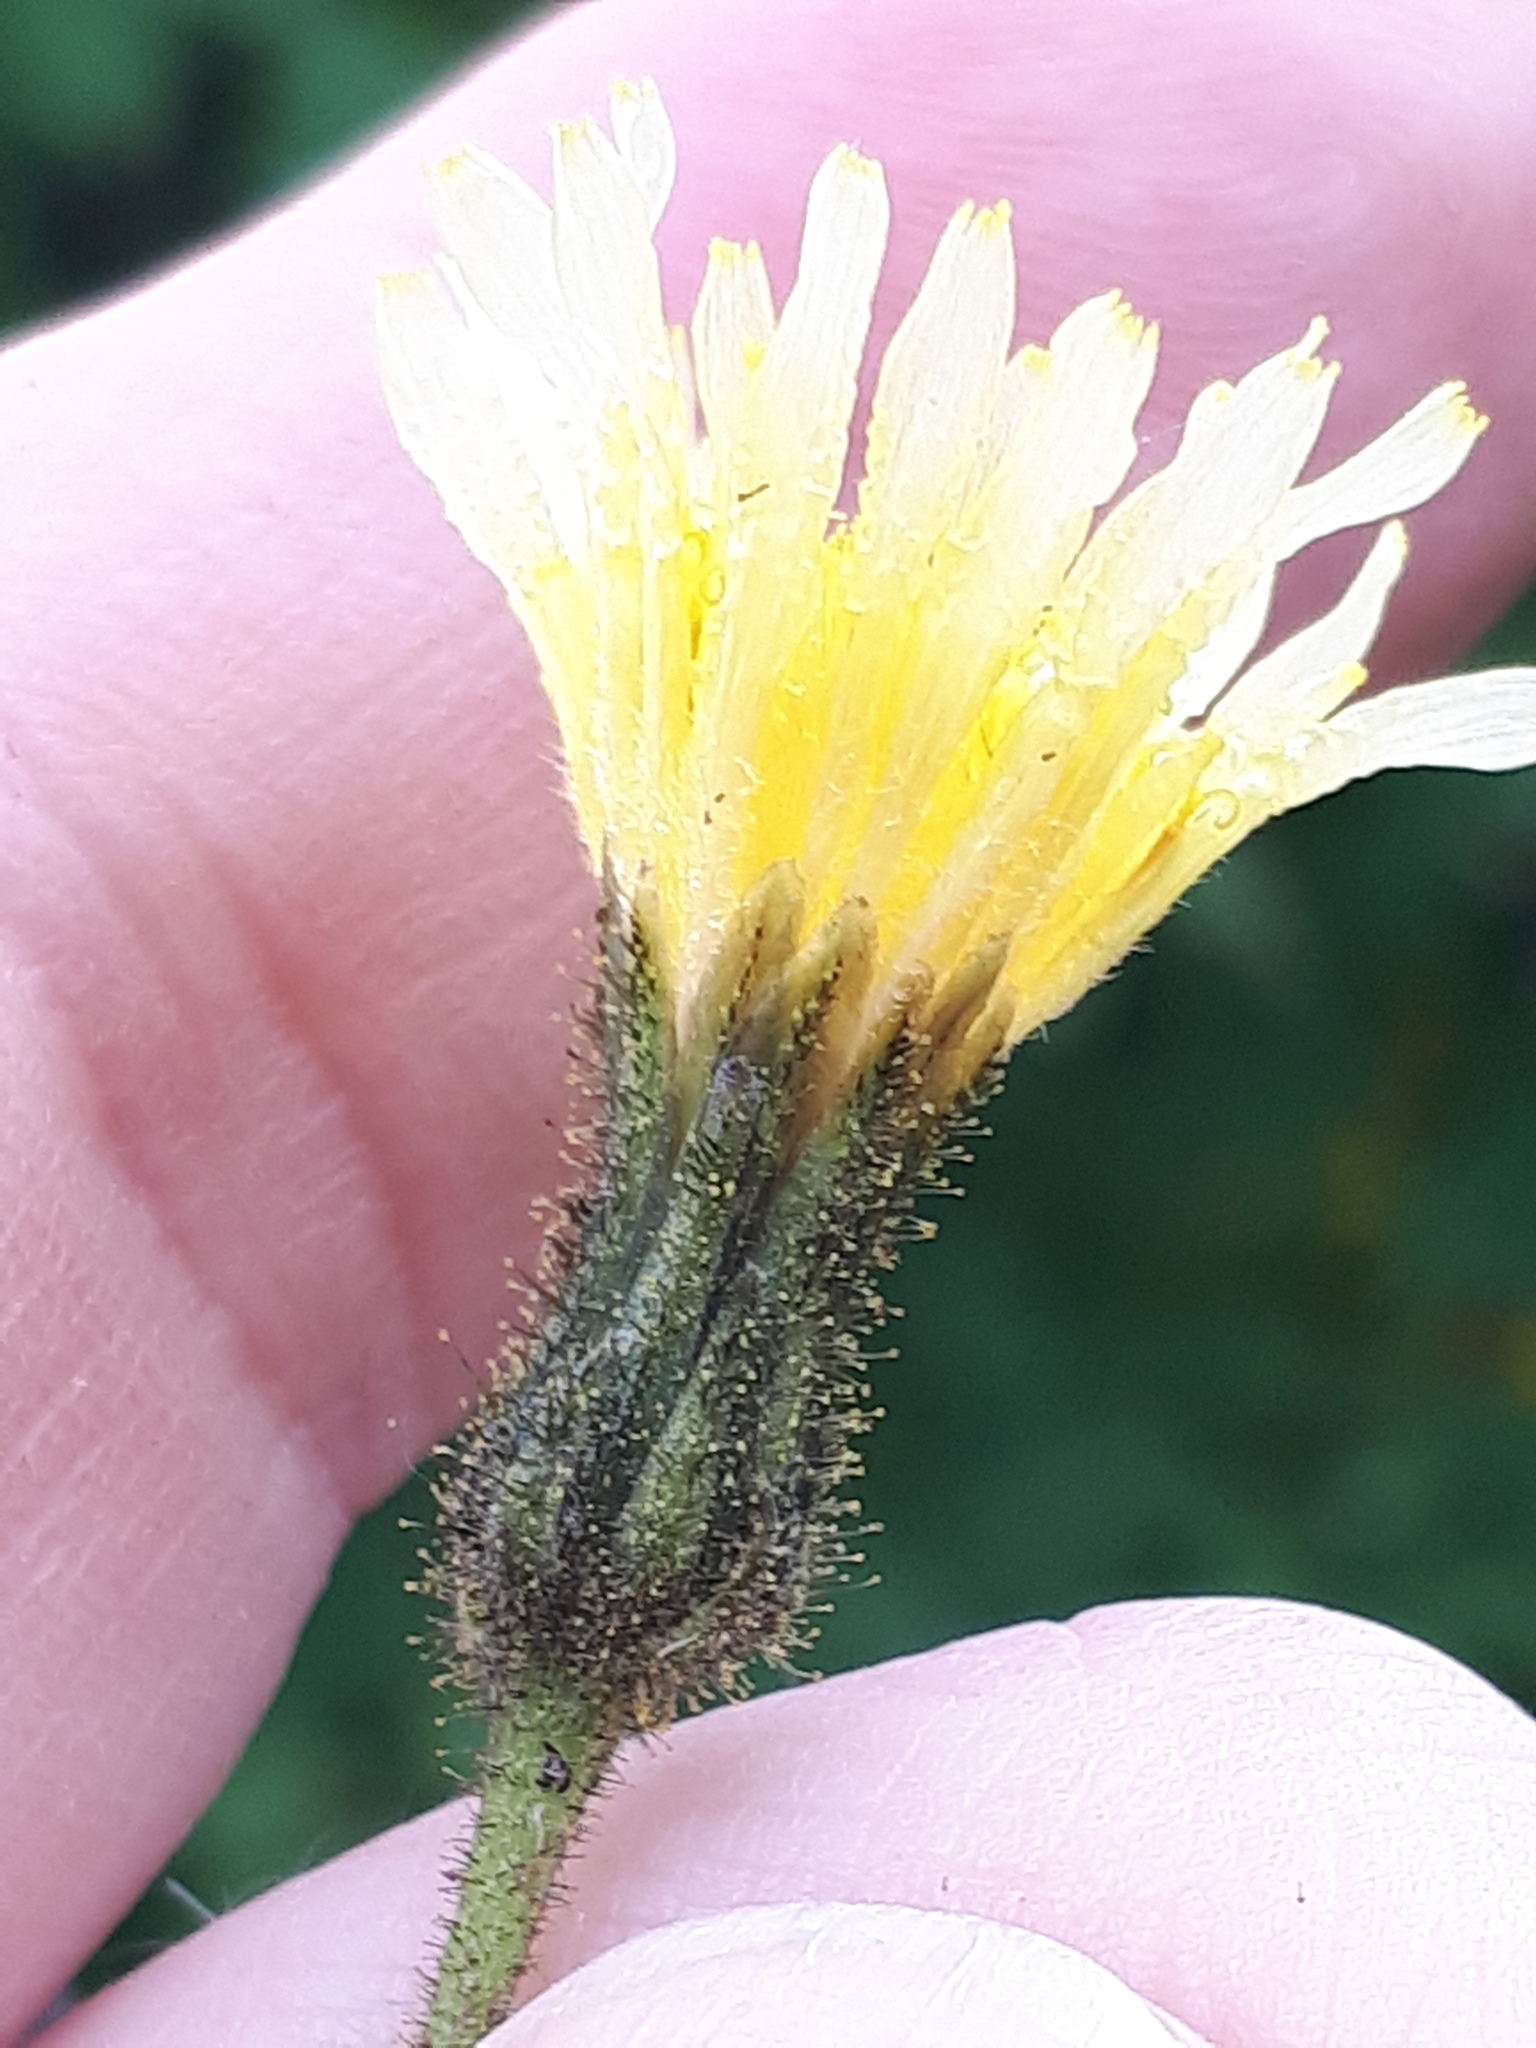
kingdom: Plantae
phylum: Tracheophyta
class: Magnoliopsida
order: Asterales
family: Asteraceae
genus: Sonchus
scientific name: Sonchus palustris
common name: Marsh sow-thistle
